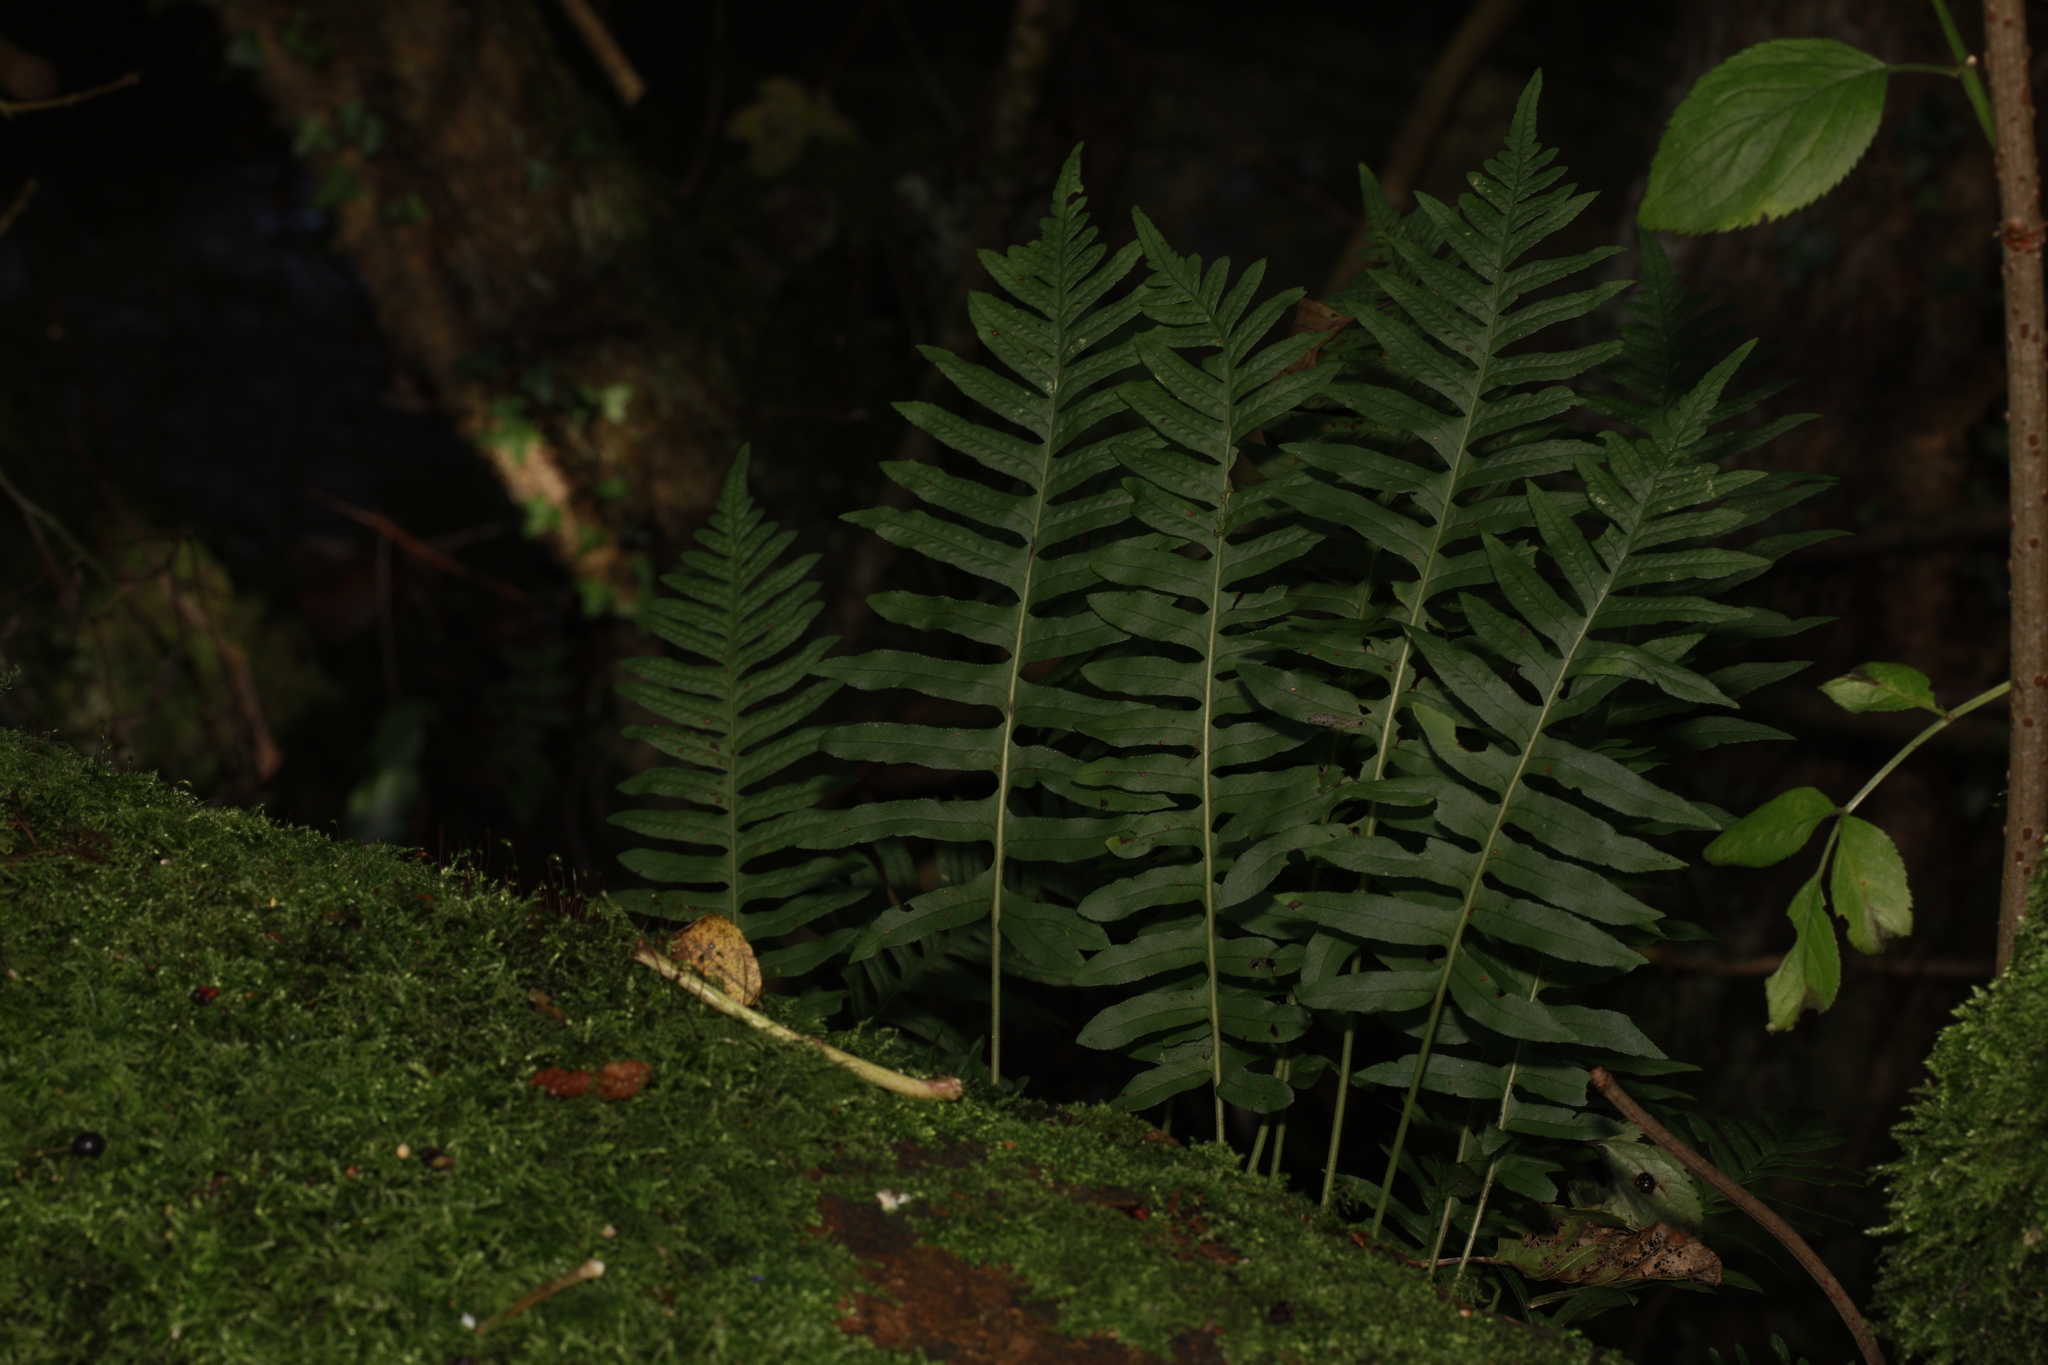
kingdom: Plantae
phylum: Tracheophyta
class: Polypodiopsida
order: Polypodiales
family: Polypodiaceae
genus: Polypodium
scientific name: Polypodium vulgare
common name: Common polypody
